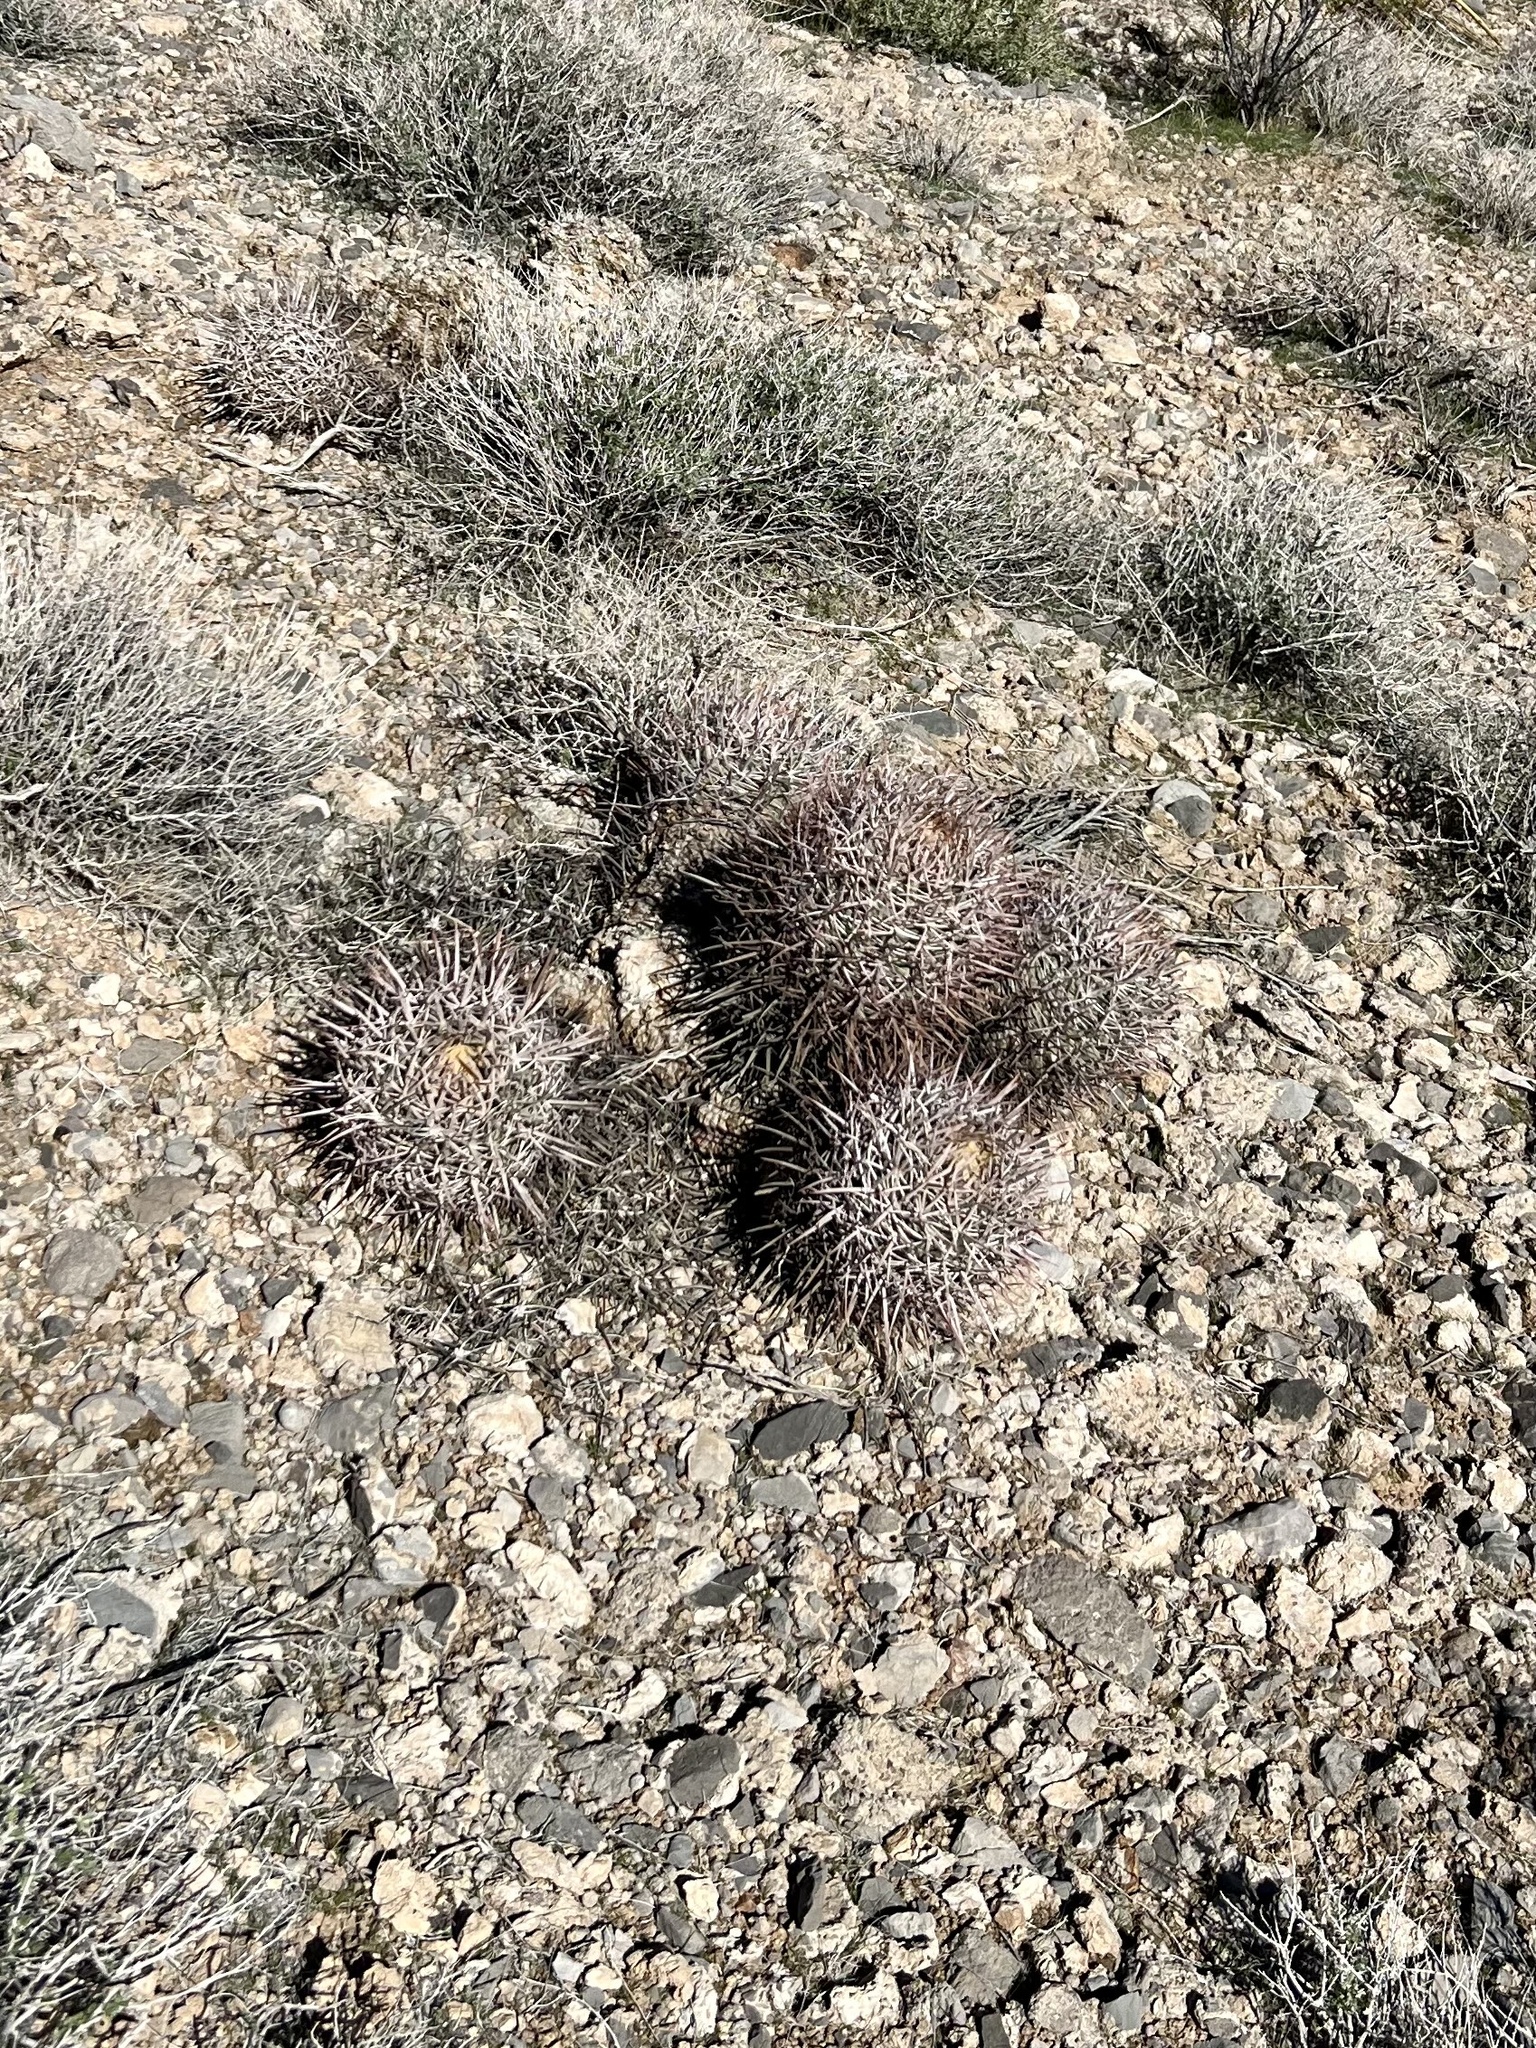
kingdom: Plantae
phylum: Tracheophyta
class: Magnoliopsida
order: Caryophyllales
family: Cactaceae
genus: Echinocactus
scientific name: Echinocactus polycephalus
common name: Cottontop cactus
